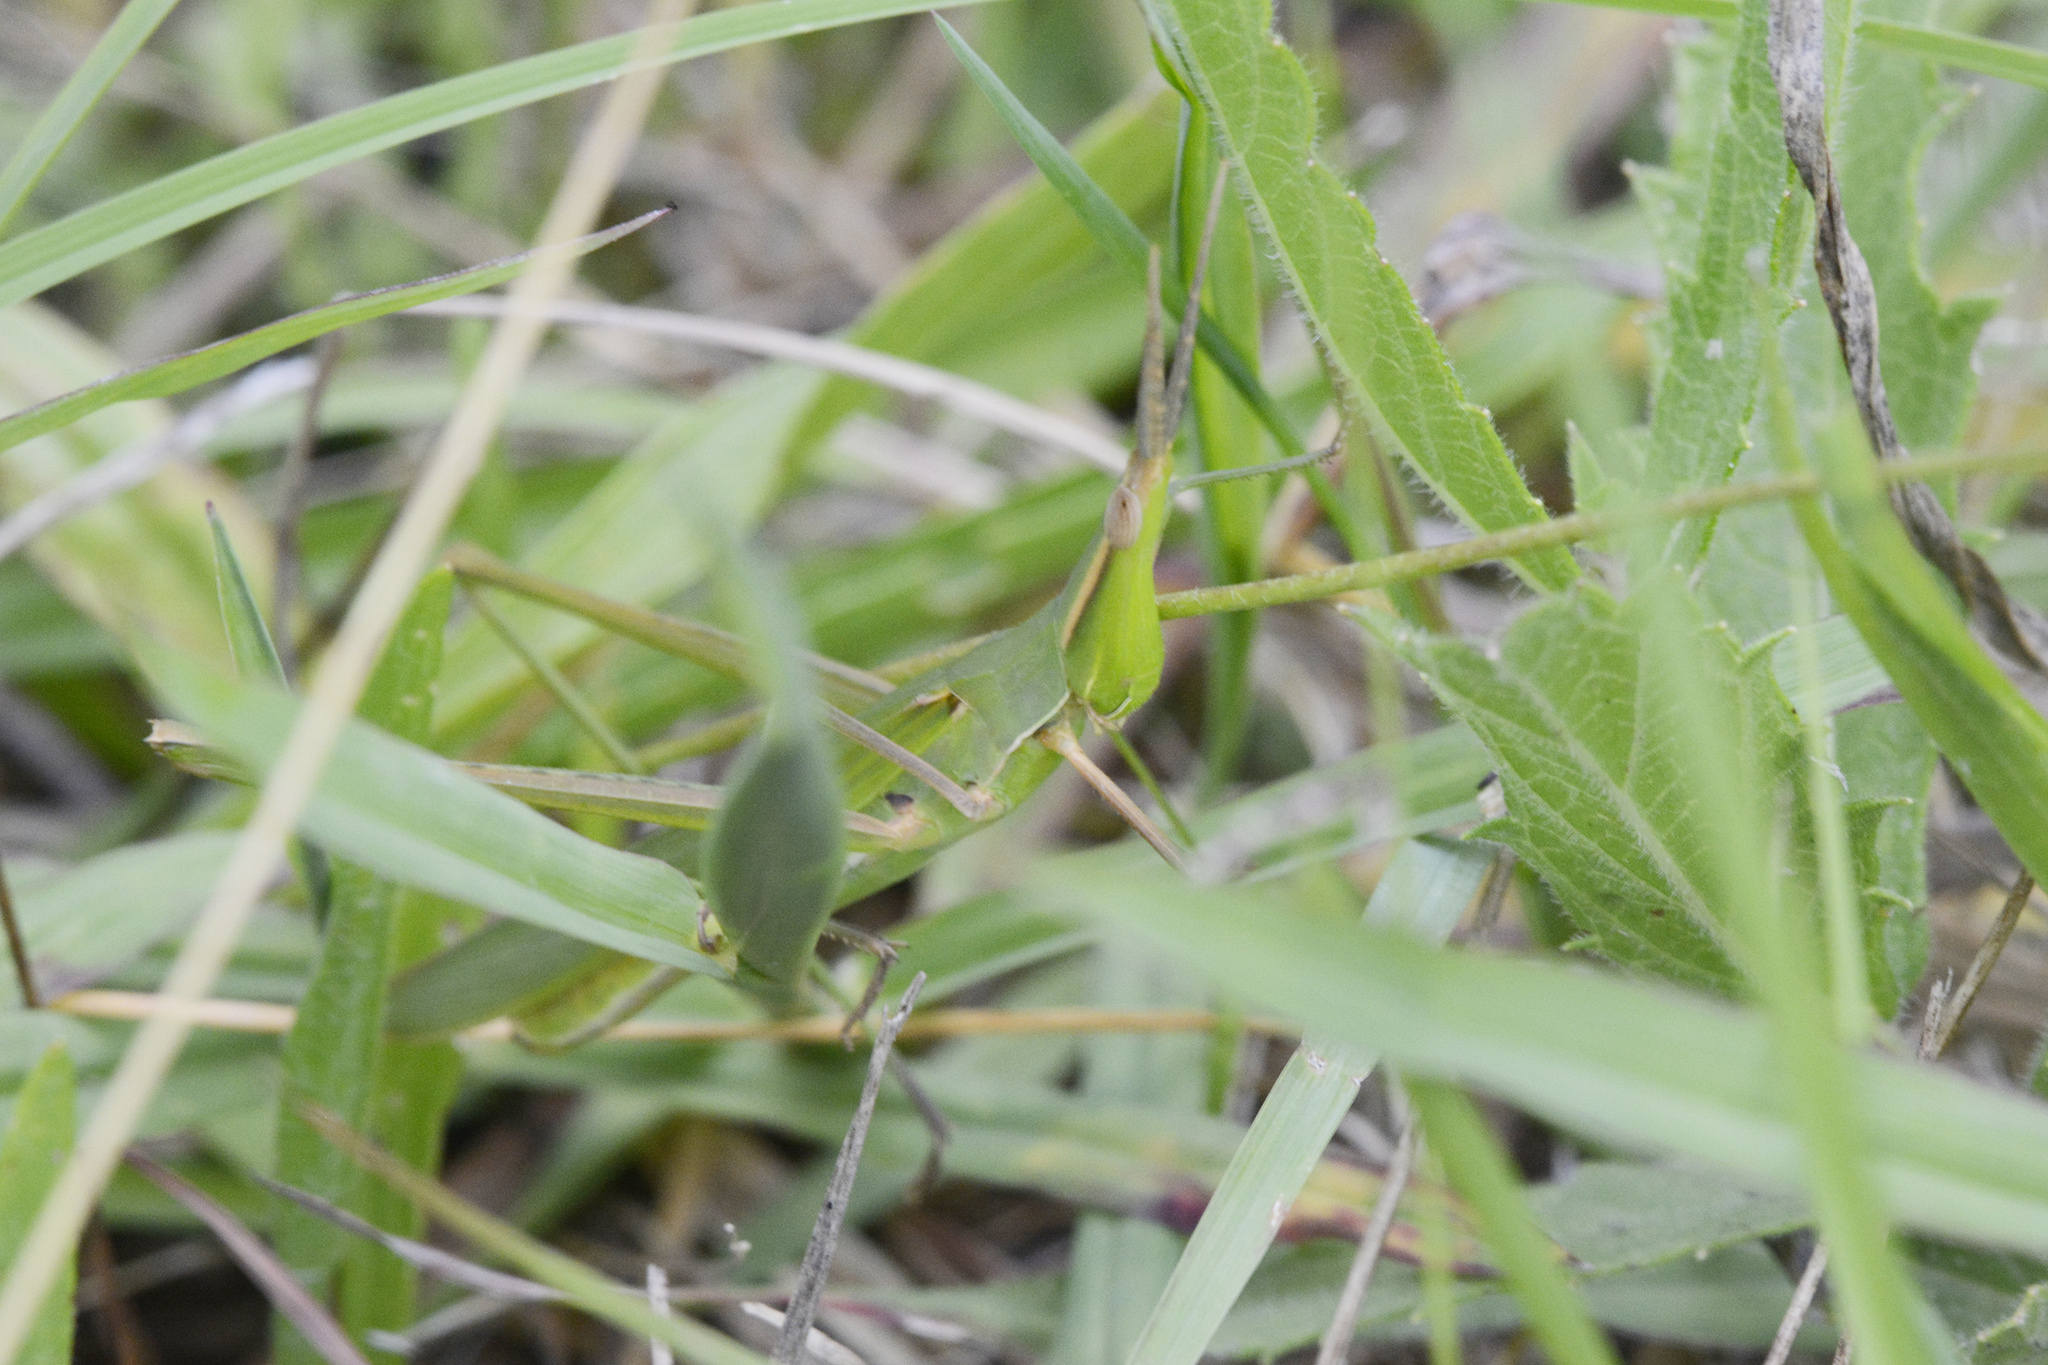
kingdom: Animalia
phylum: Arthropoda
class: Insecta
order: Orthoptera
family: Acrididae
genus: Acrida
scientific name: Acrida conica
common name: Giant green slantface
